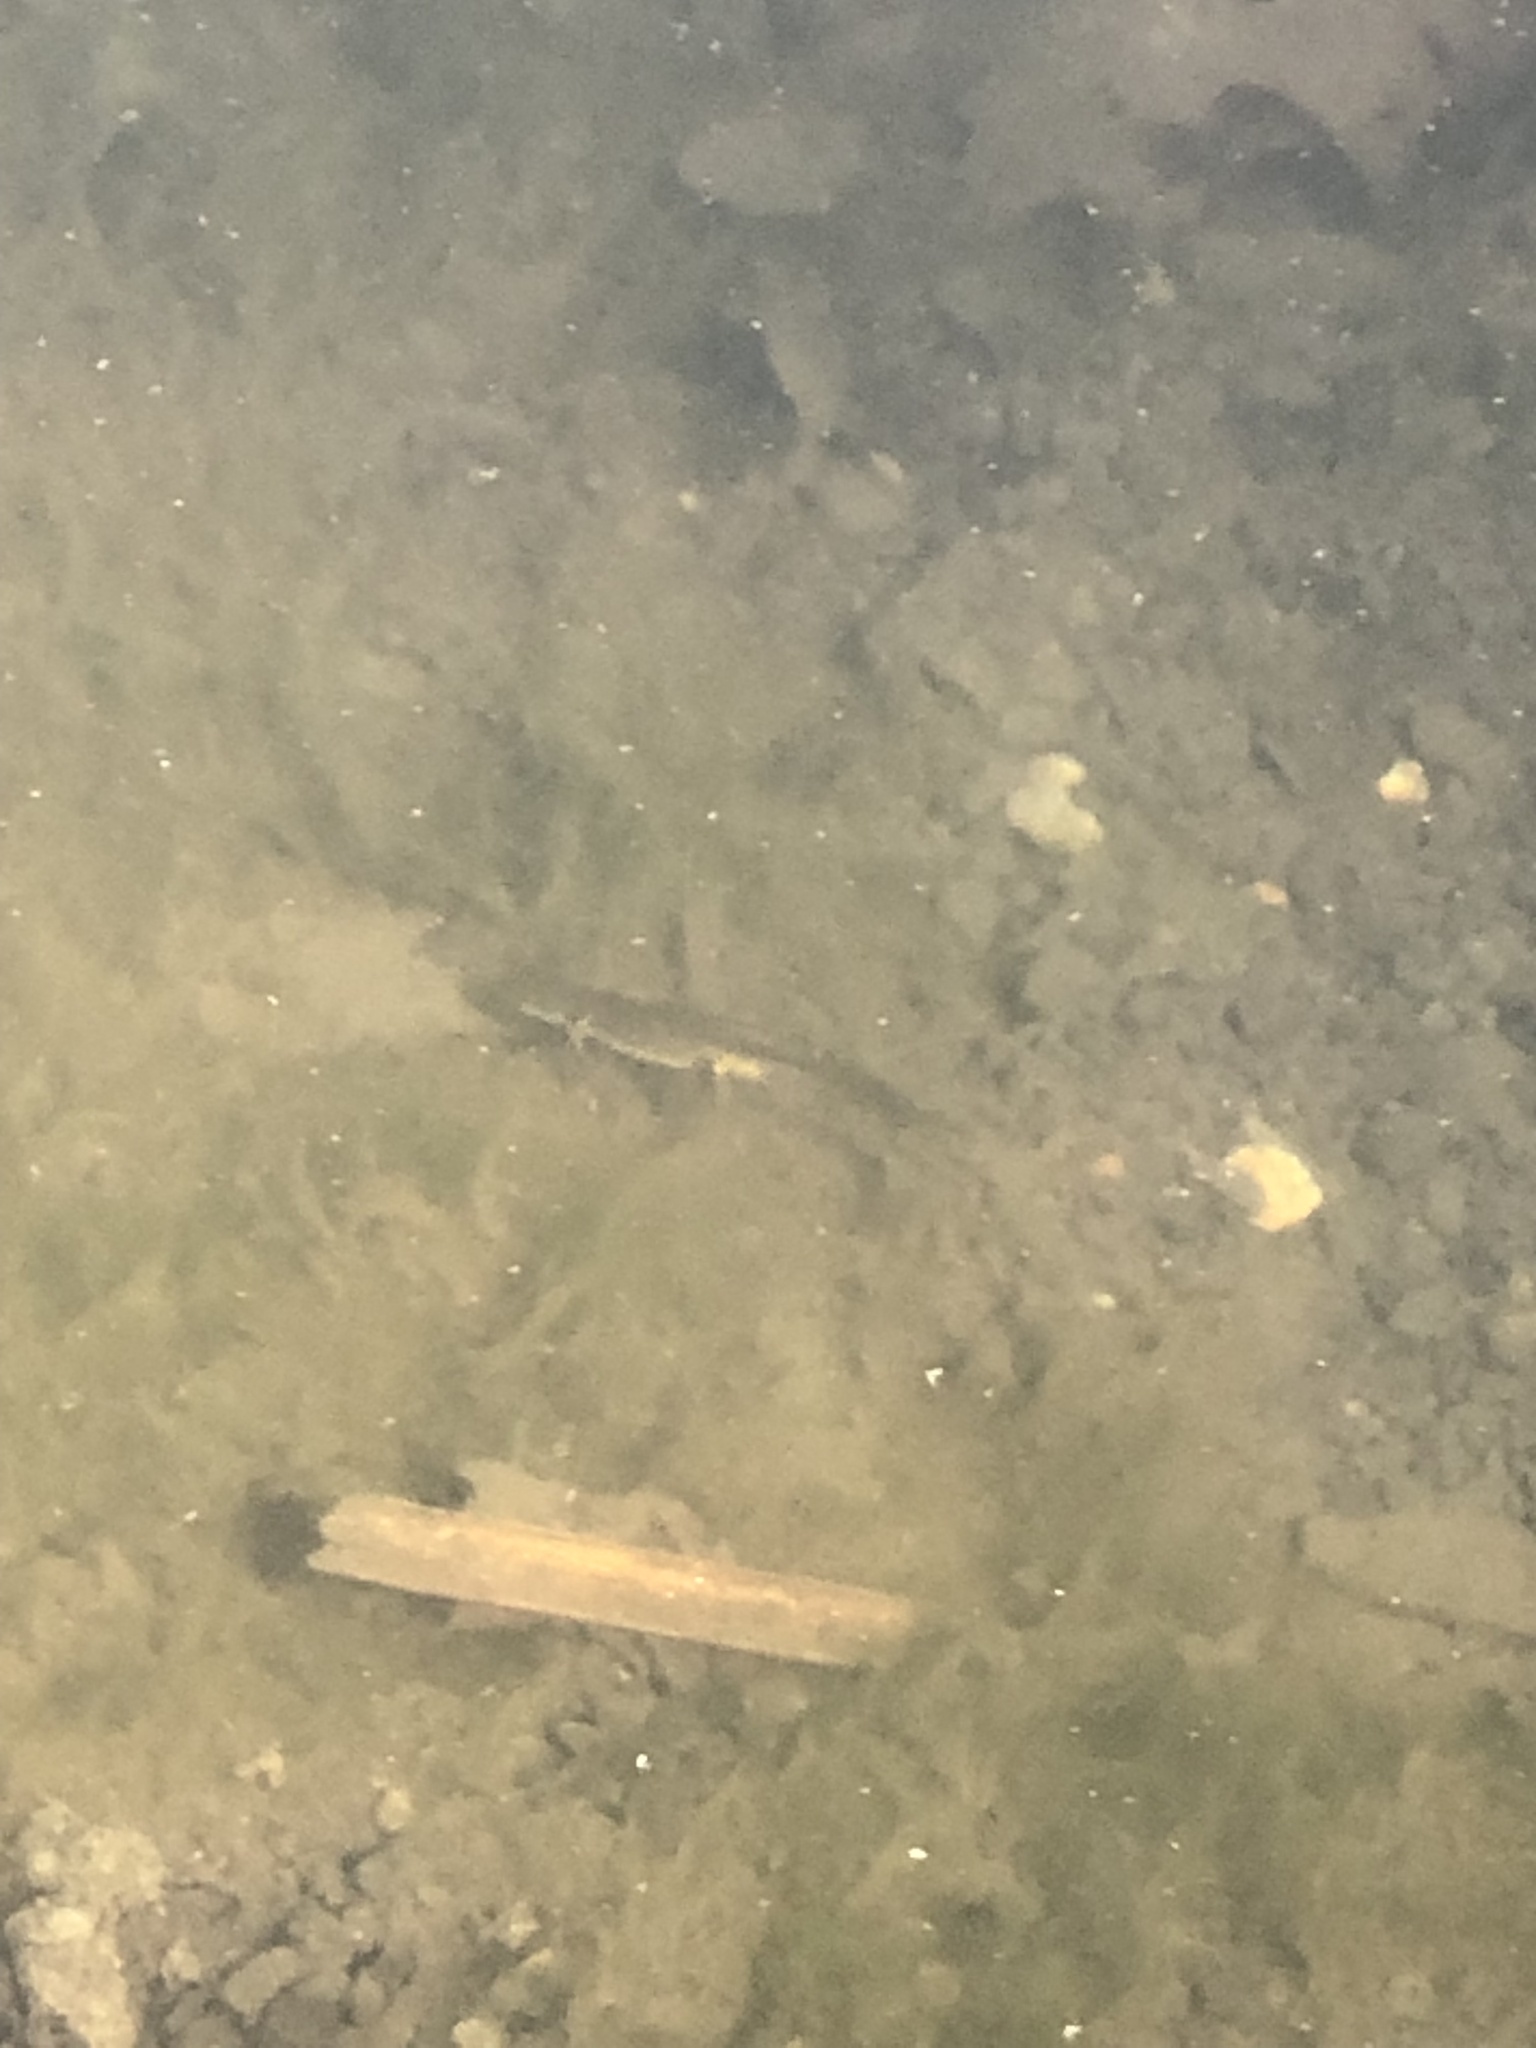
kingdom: Animalia
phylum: Chordata
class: Amphibia
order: Caudata
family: Salamandridae
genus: Notophthalmus
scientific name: Notophthalmus viridescens
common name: Eastern newt
